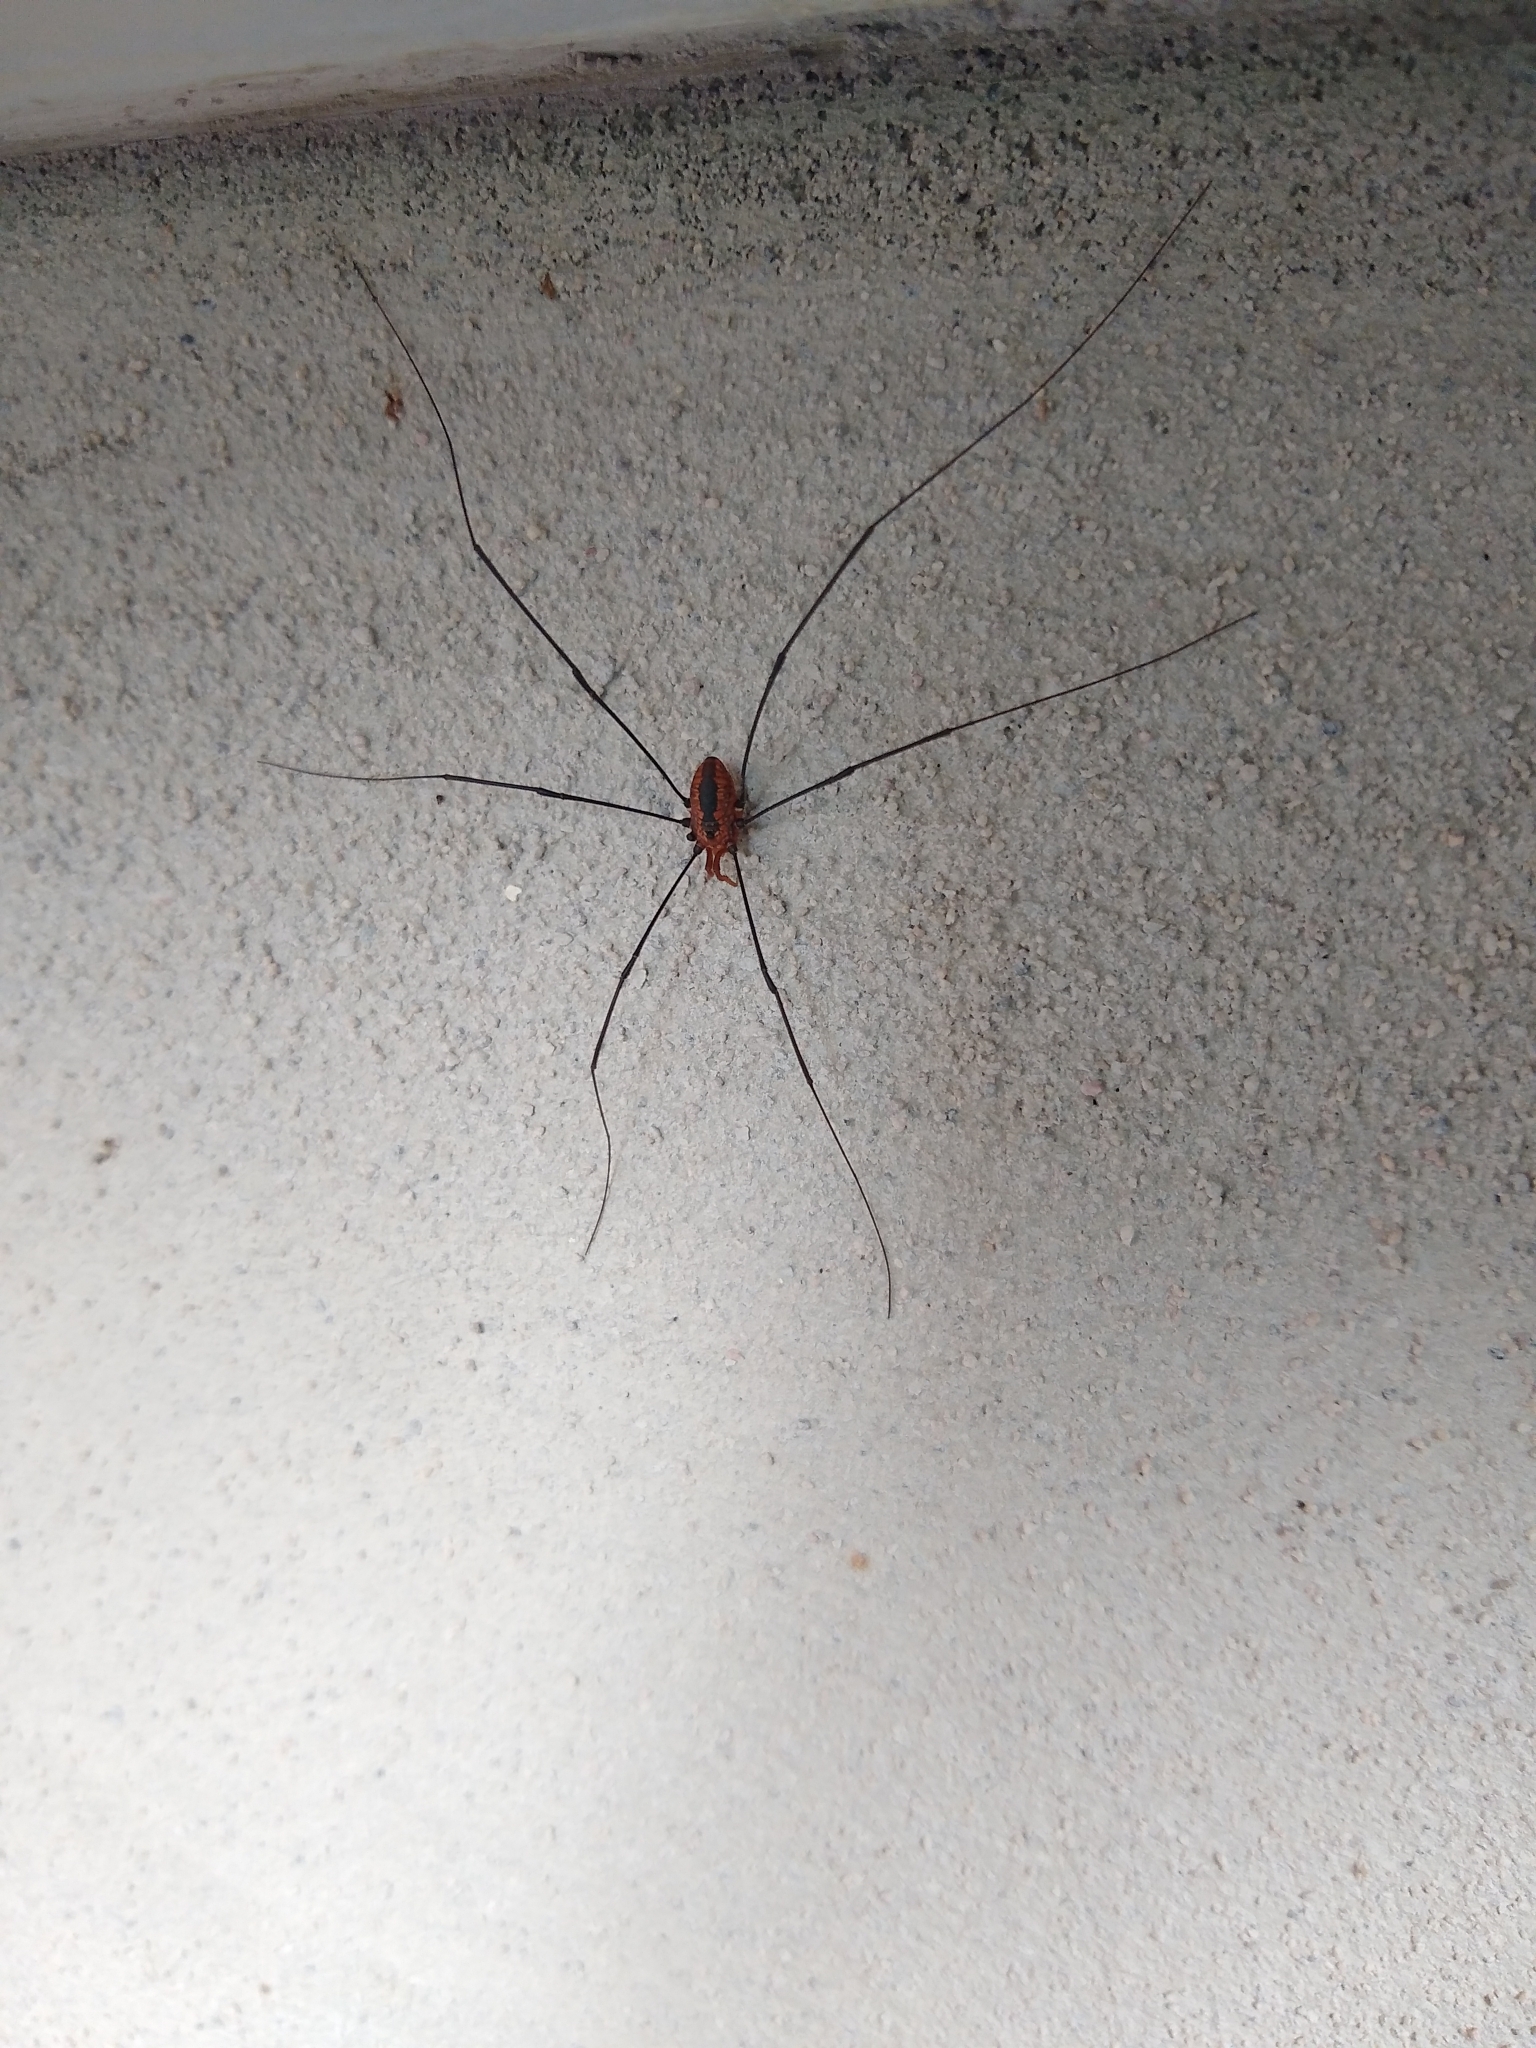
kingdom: Animalia
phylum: Arthropoda
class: Arachnida
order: Opiliones
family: Sclerosomatidae
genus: Leiobunum
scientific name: Leiobunum vittatum
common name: Eastern harvestman
